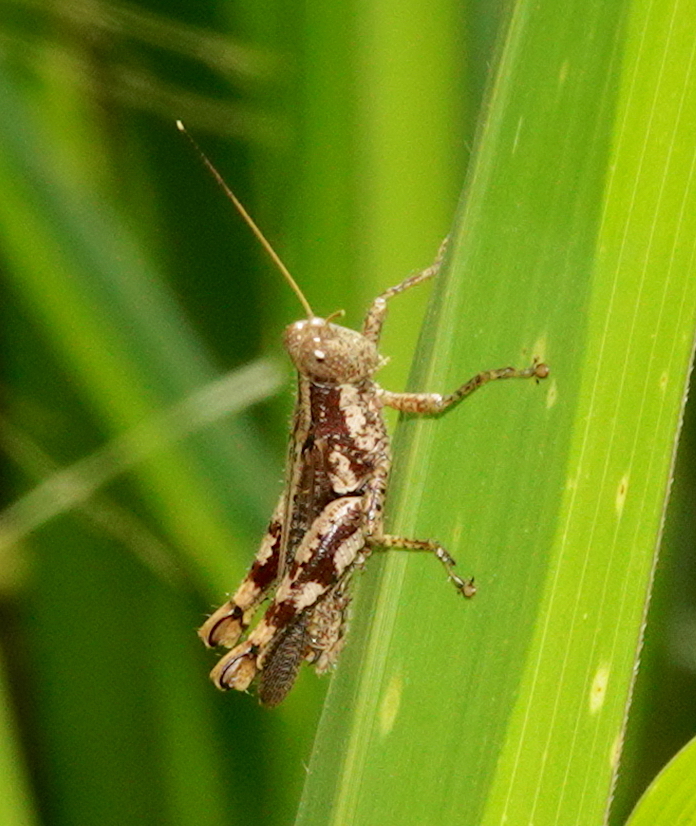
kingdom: Animalia
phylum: Arthropoda
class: Insecta
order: Orthoptera
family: Acrididae
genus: Pirithoicus
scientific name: Pirithoicus ophthalmicus
